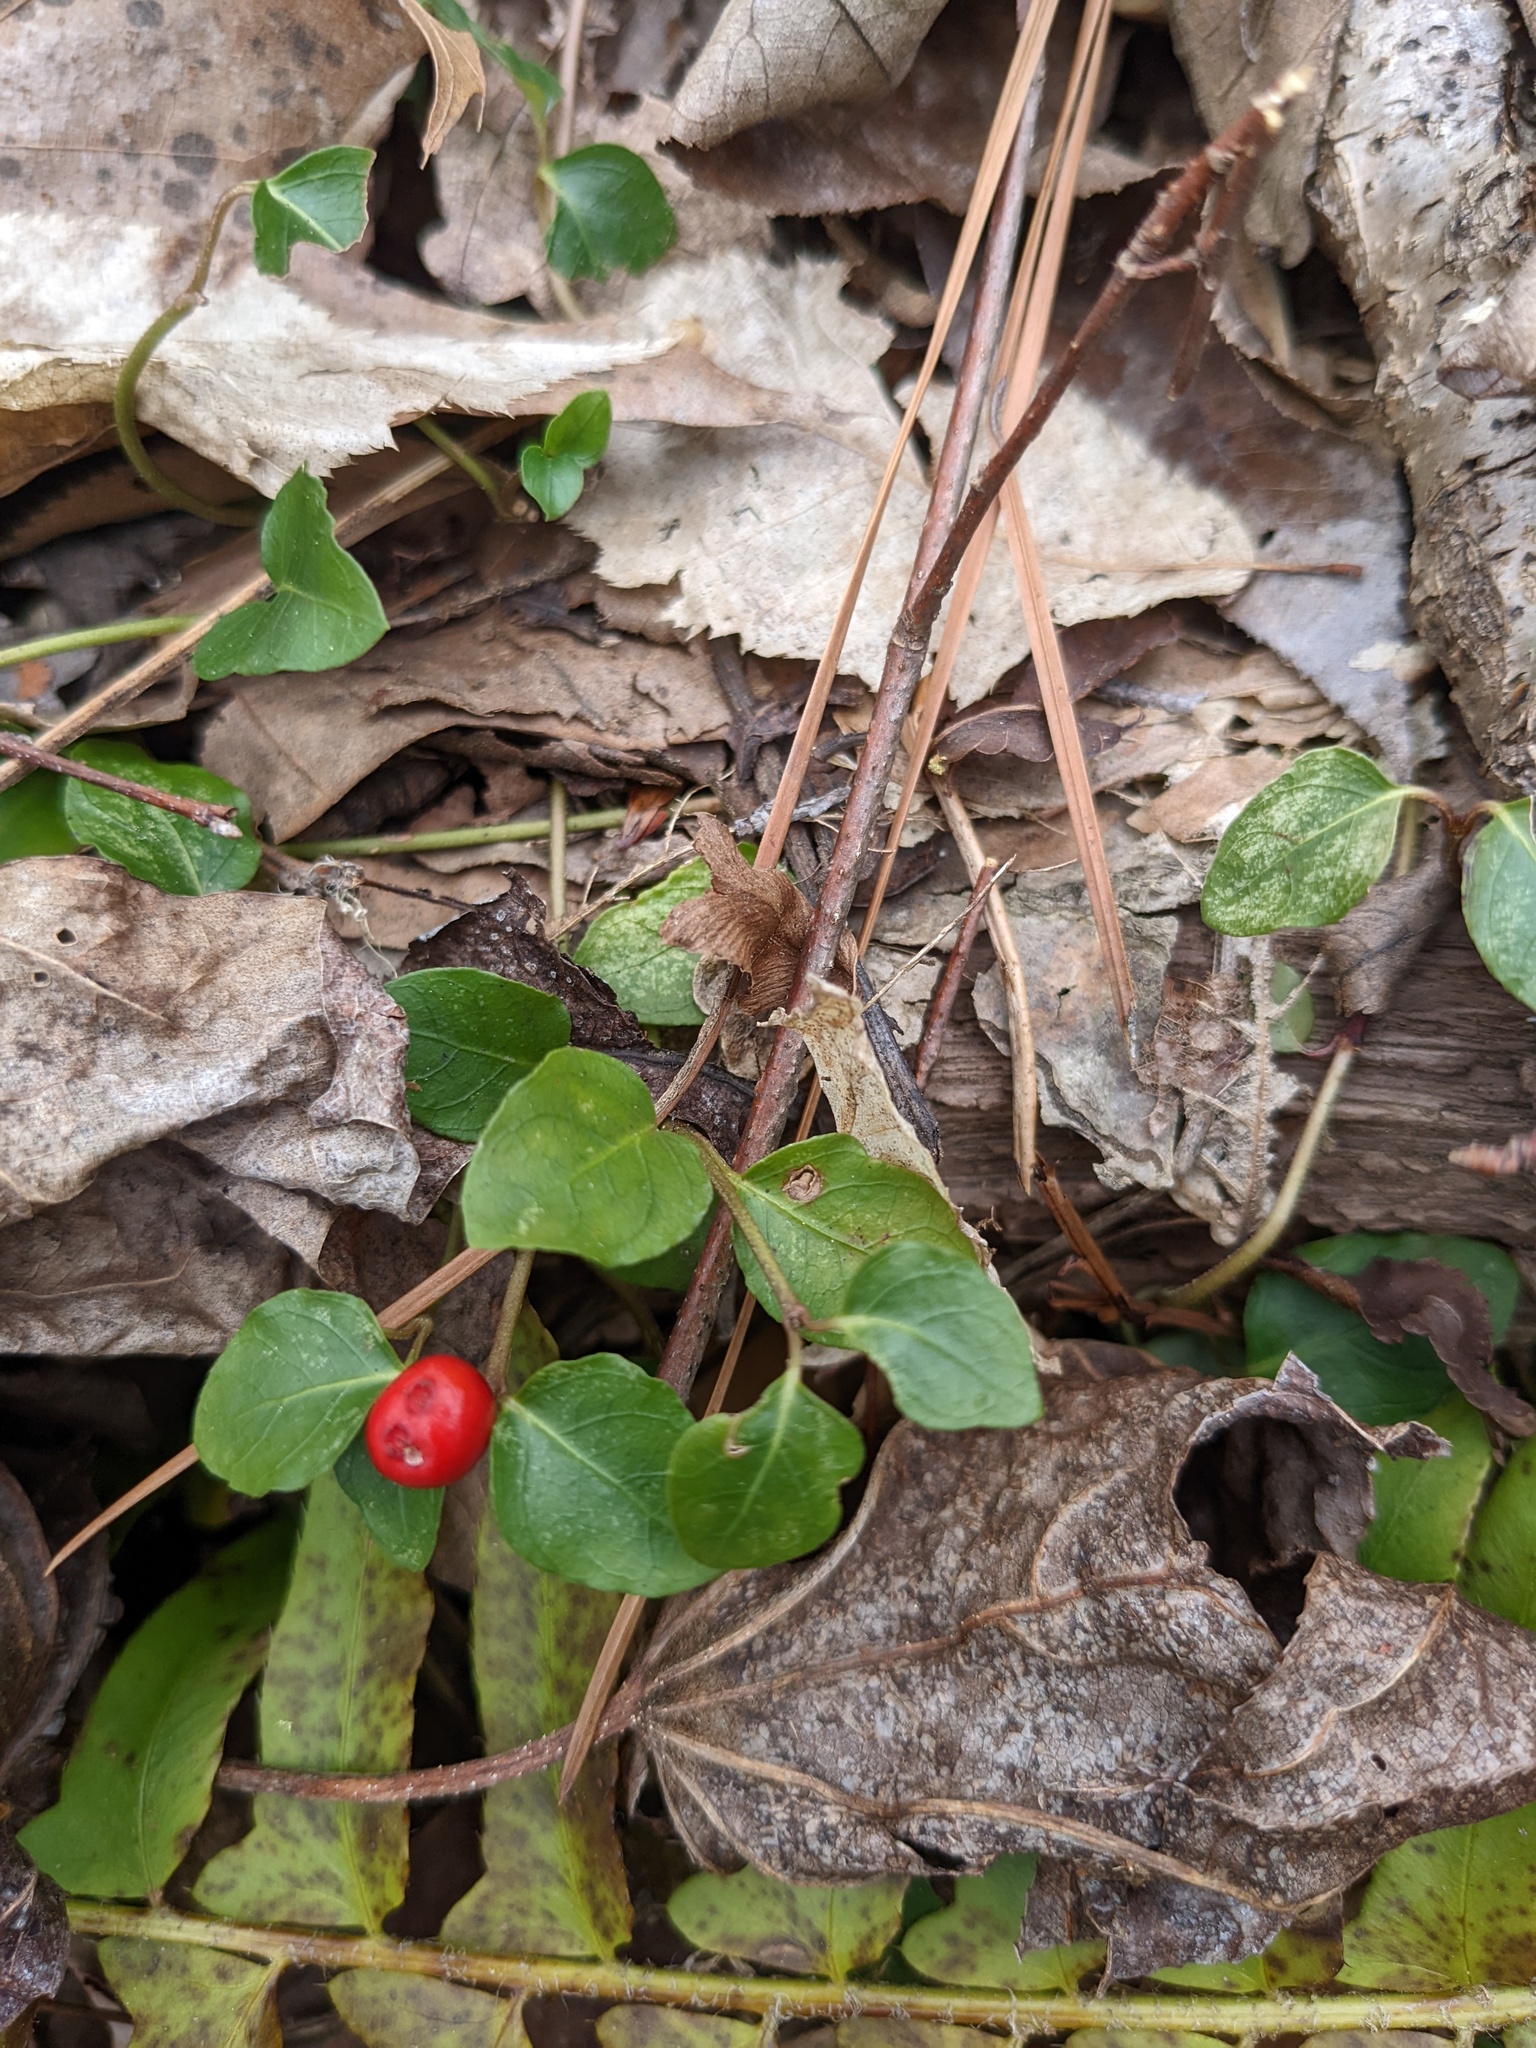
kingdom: Plantae
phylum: Tracheophyta
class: Magnoliopsida
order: Gentianales
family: Rubiaceae
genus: Mitchella
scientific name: Mitchella repens
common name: Partridge-berry
